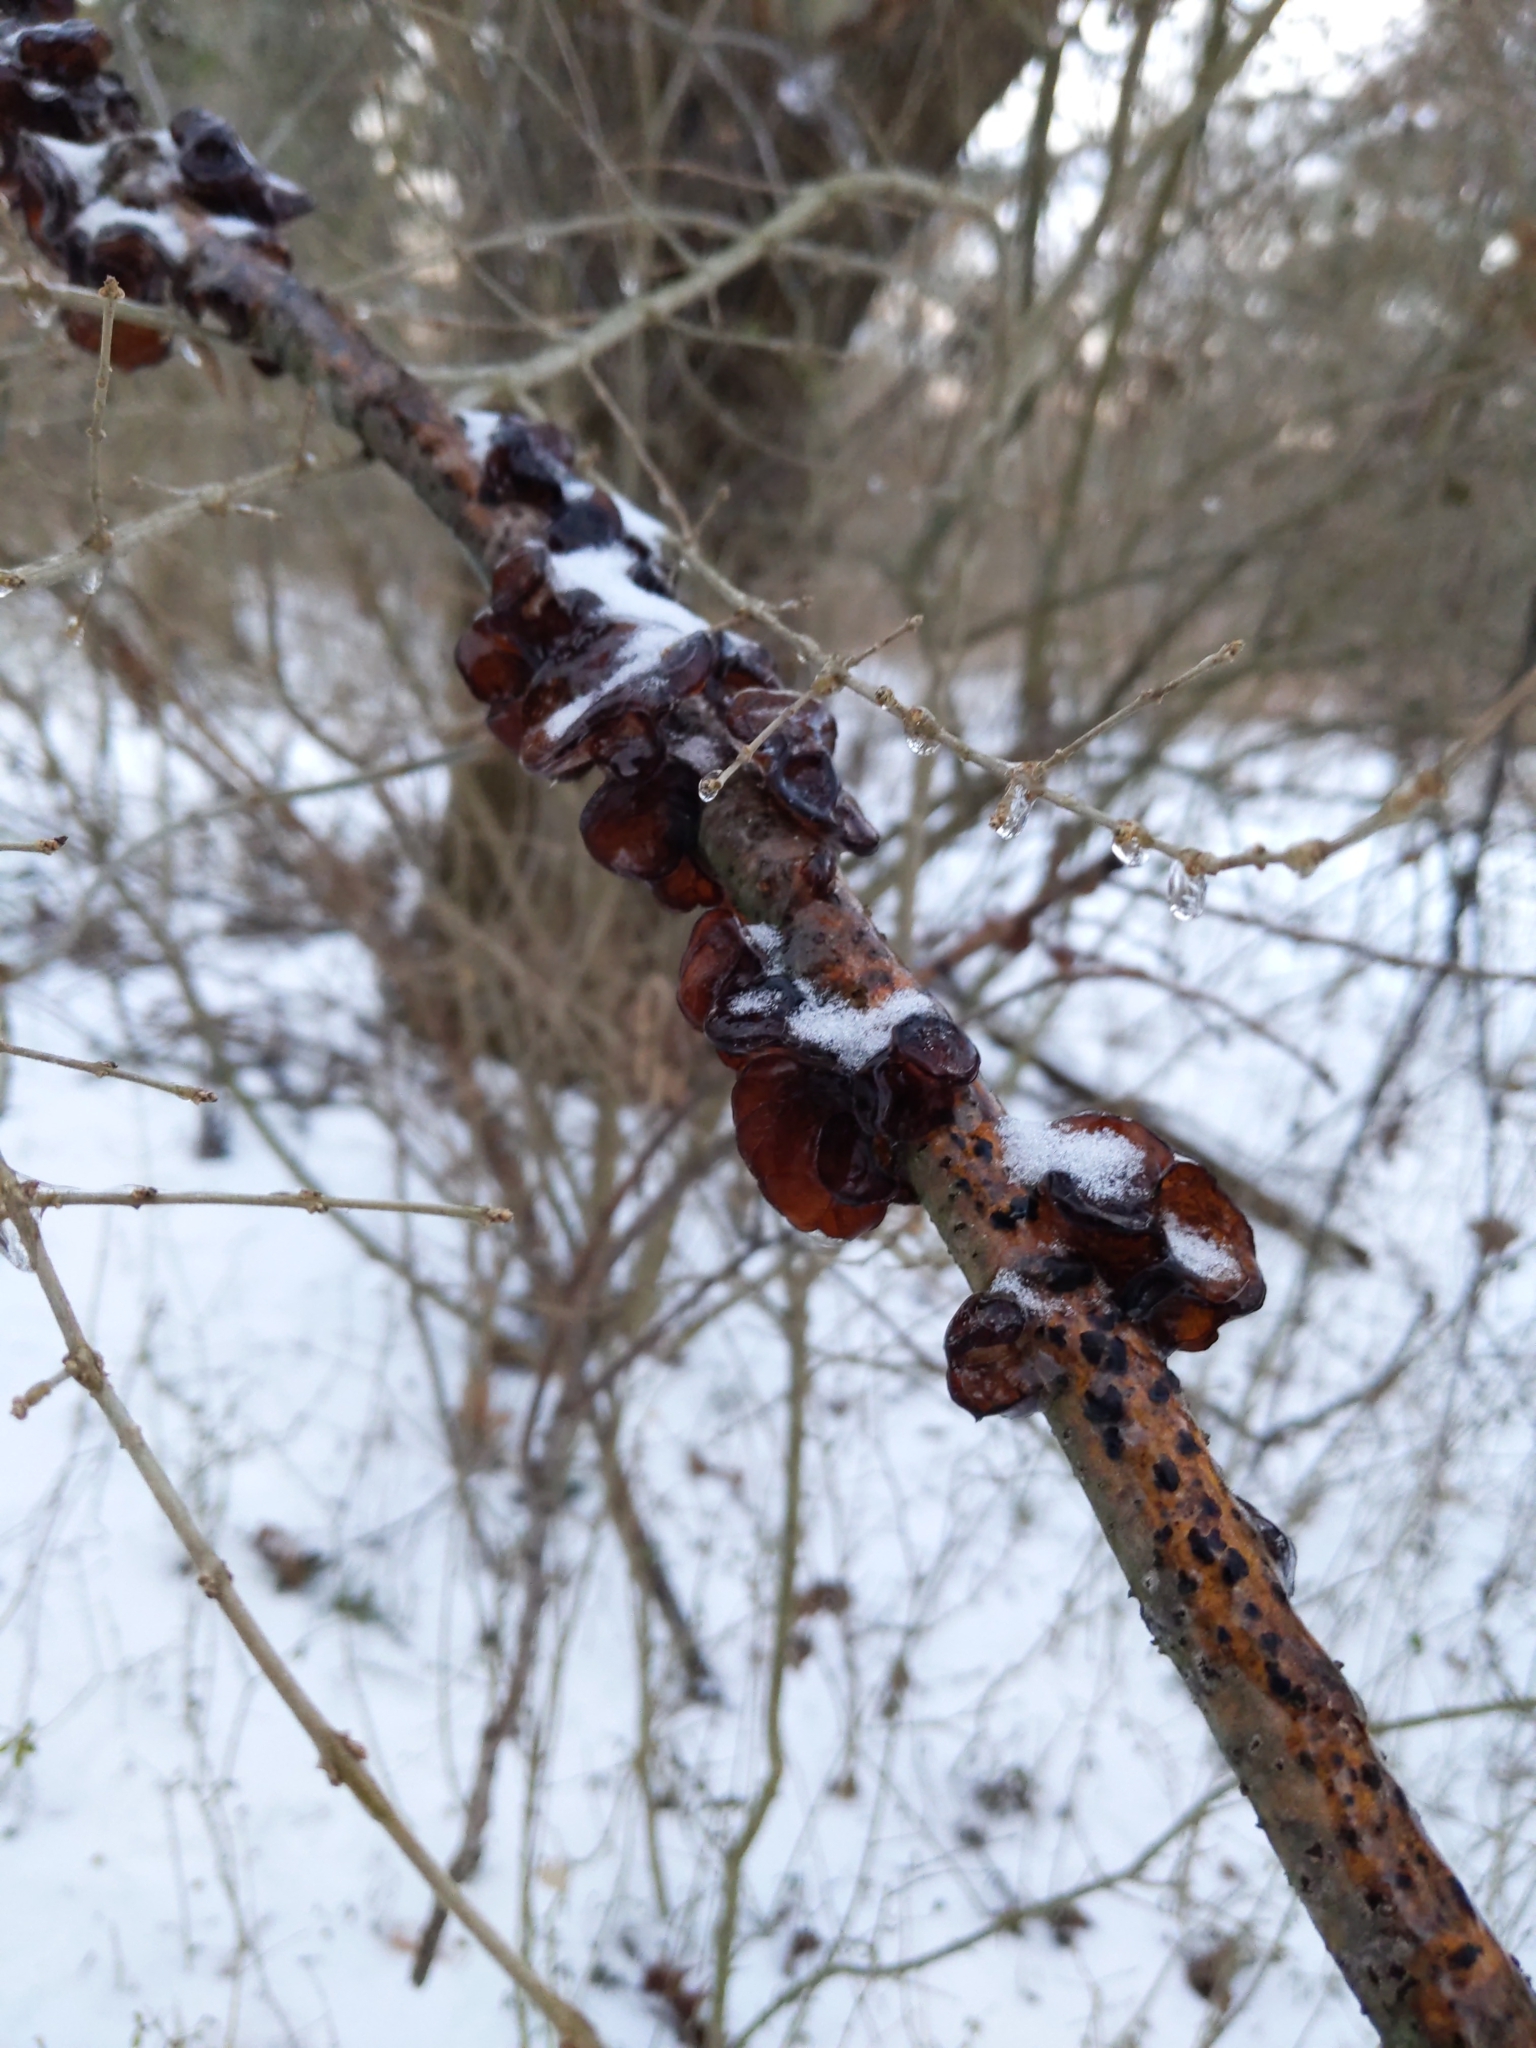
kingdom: Fungi
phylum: Basidiomycota
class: Agaricomycetes
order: Auriculariales
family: Auriculariaceae
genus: Exidia
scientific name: Exidia
